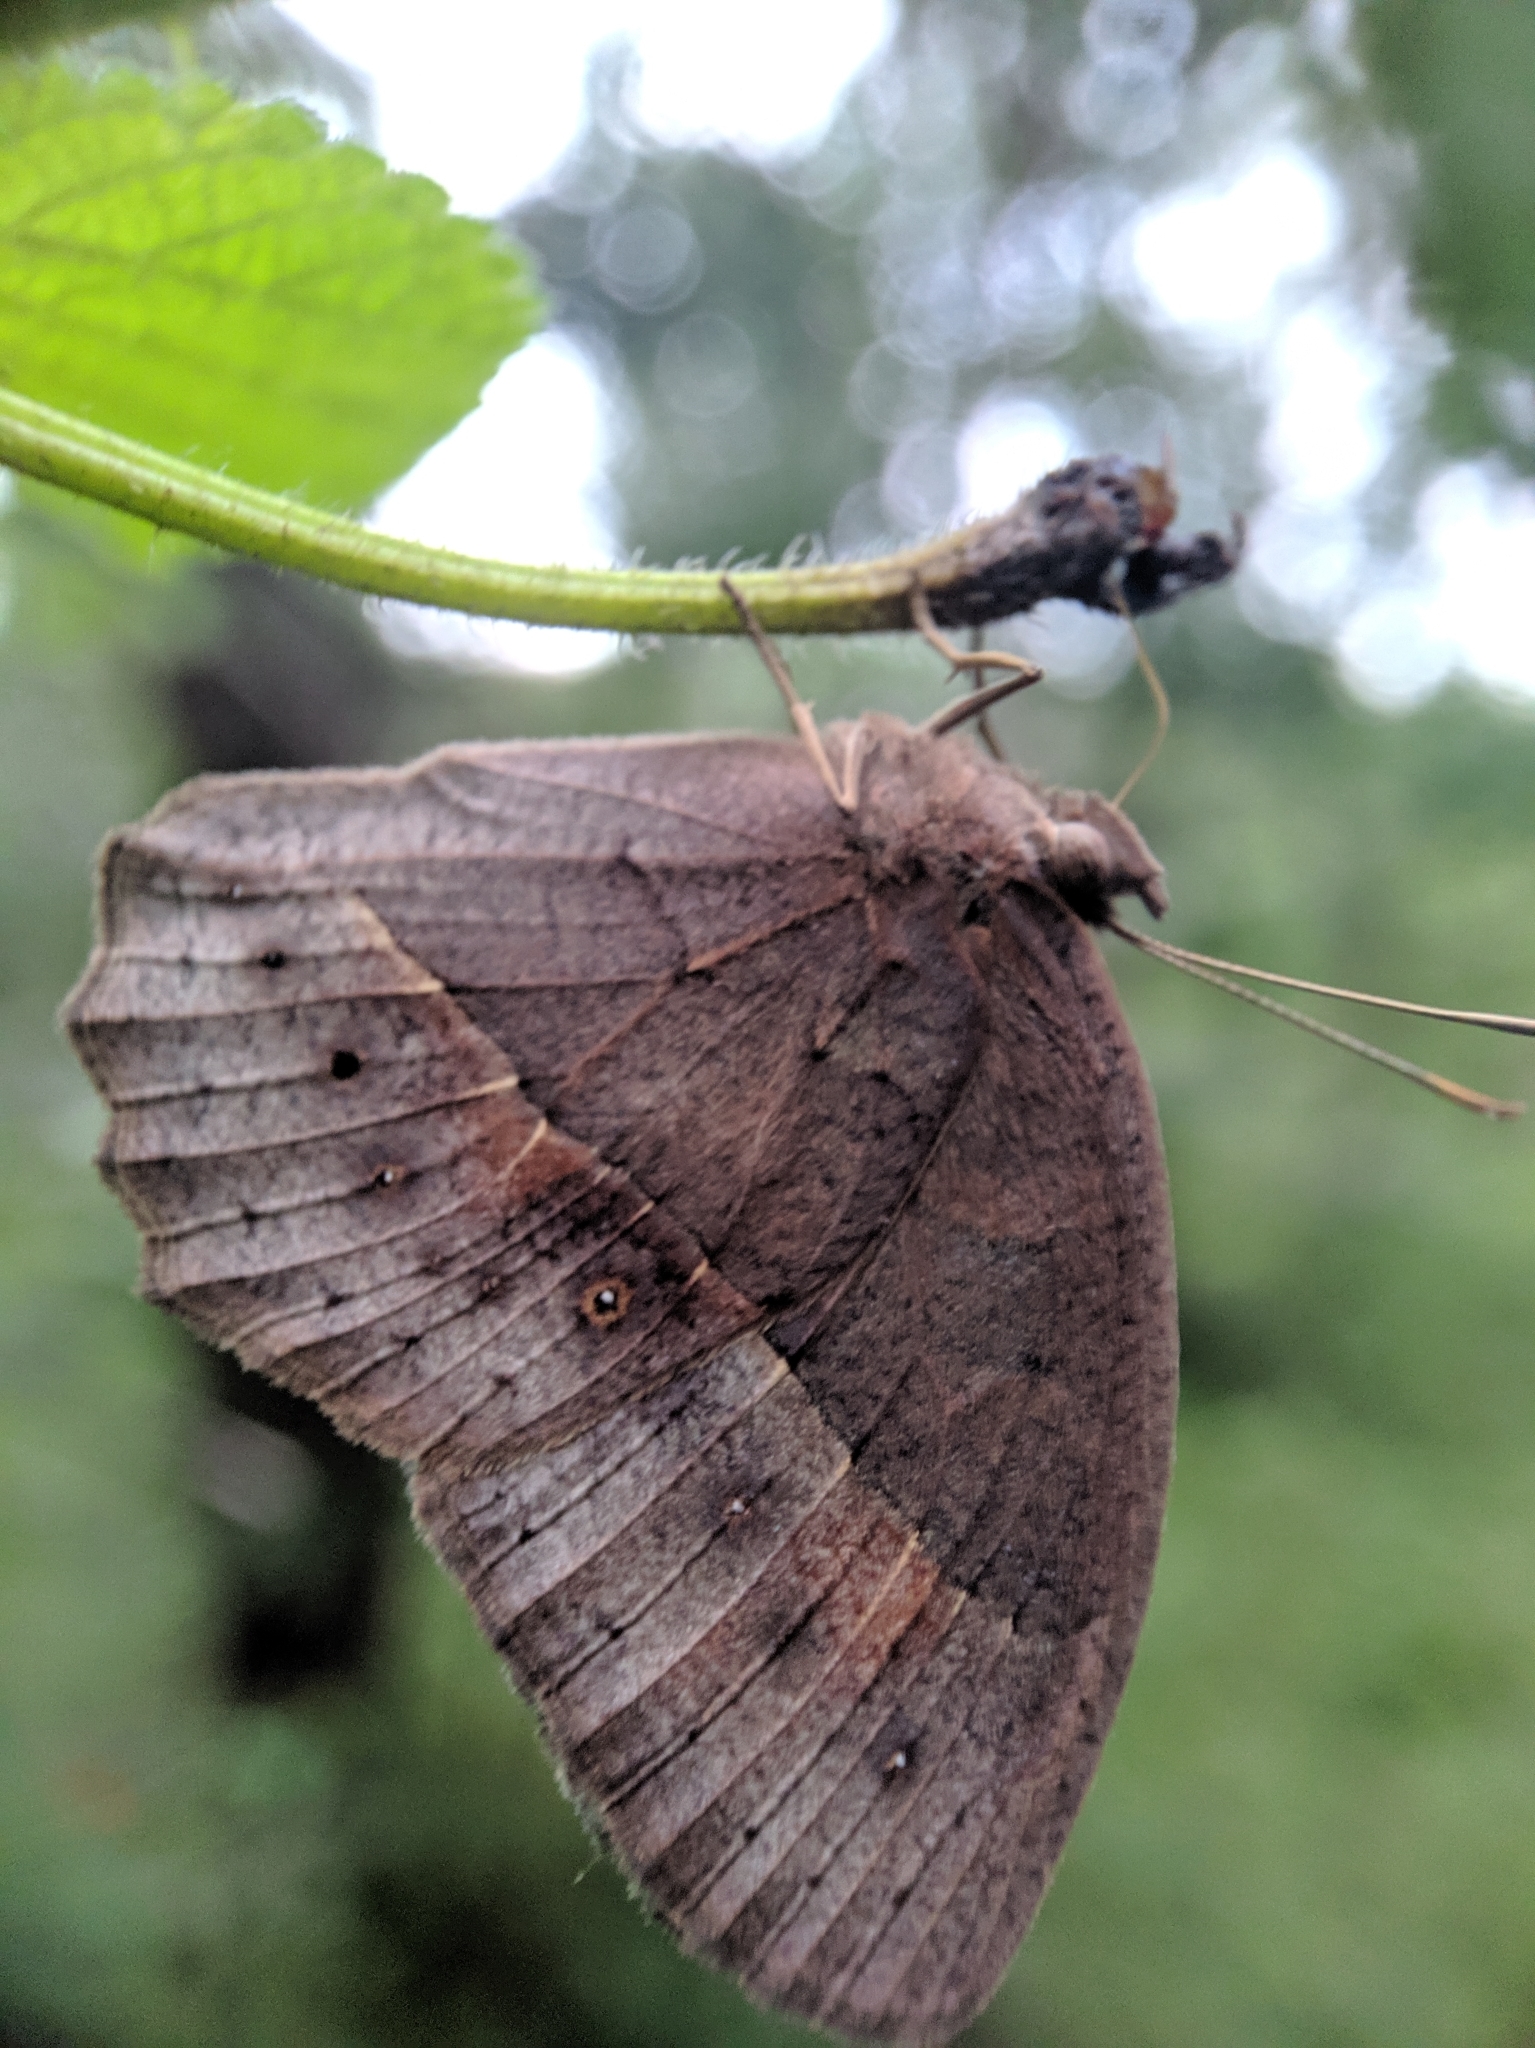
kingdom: Animalia
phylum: Arthropoda
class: Insecta
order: Lepidoptera
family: Nymphalidae
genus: Mycalesis
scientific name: Mycalesis perseus
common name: Dingy bushbrown
